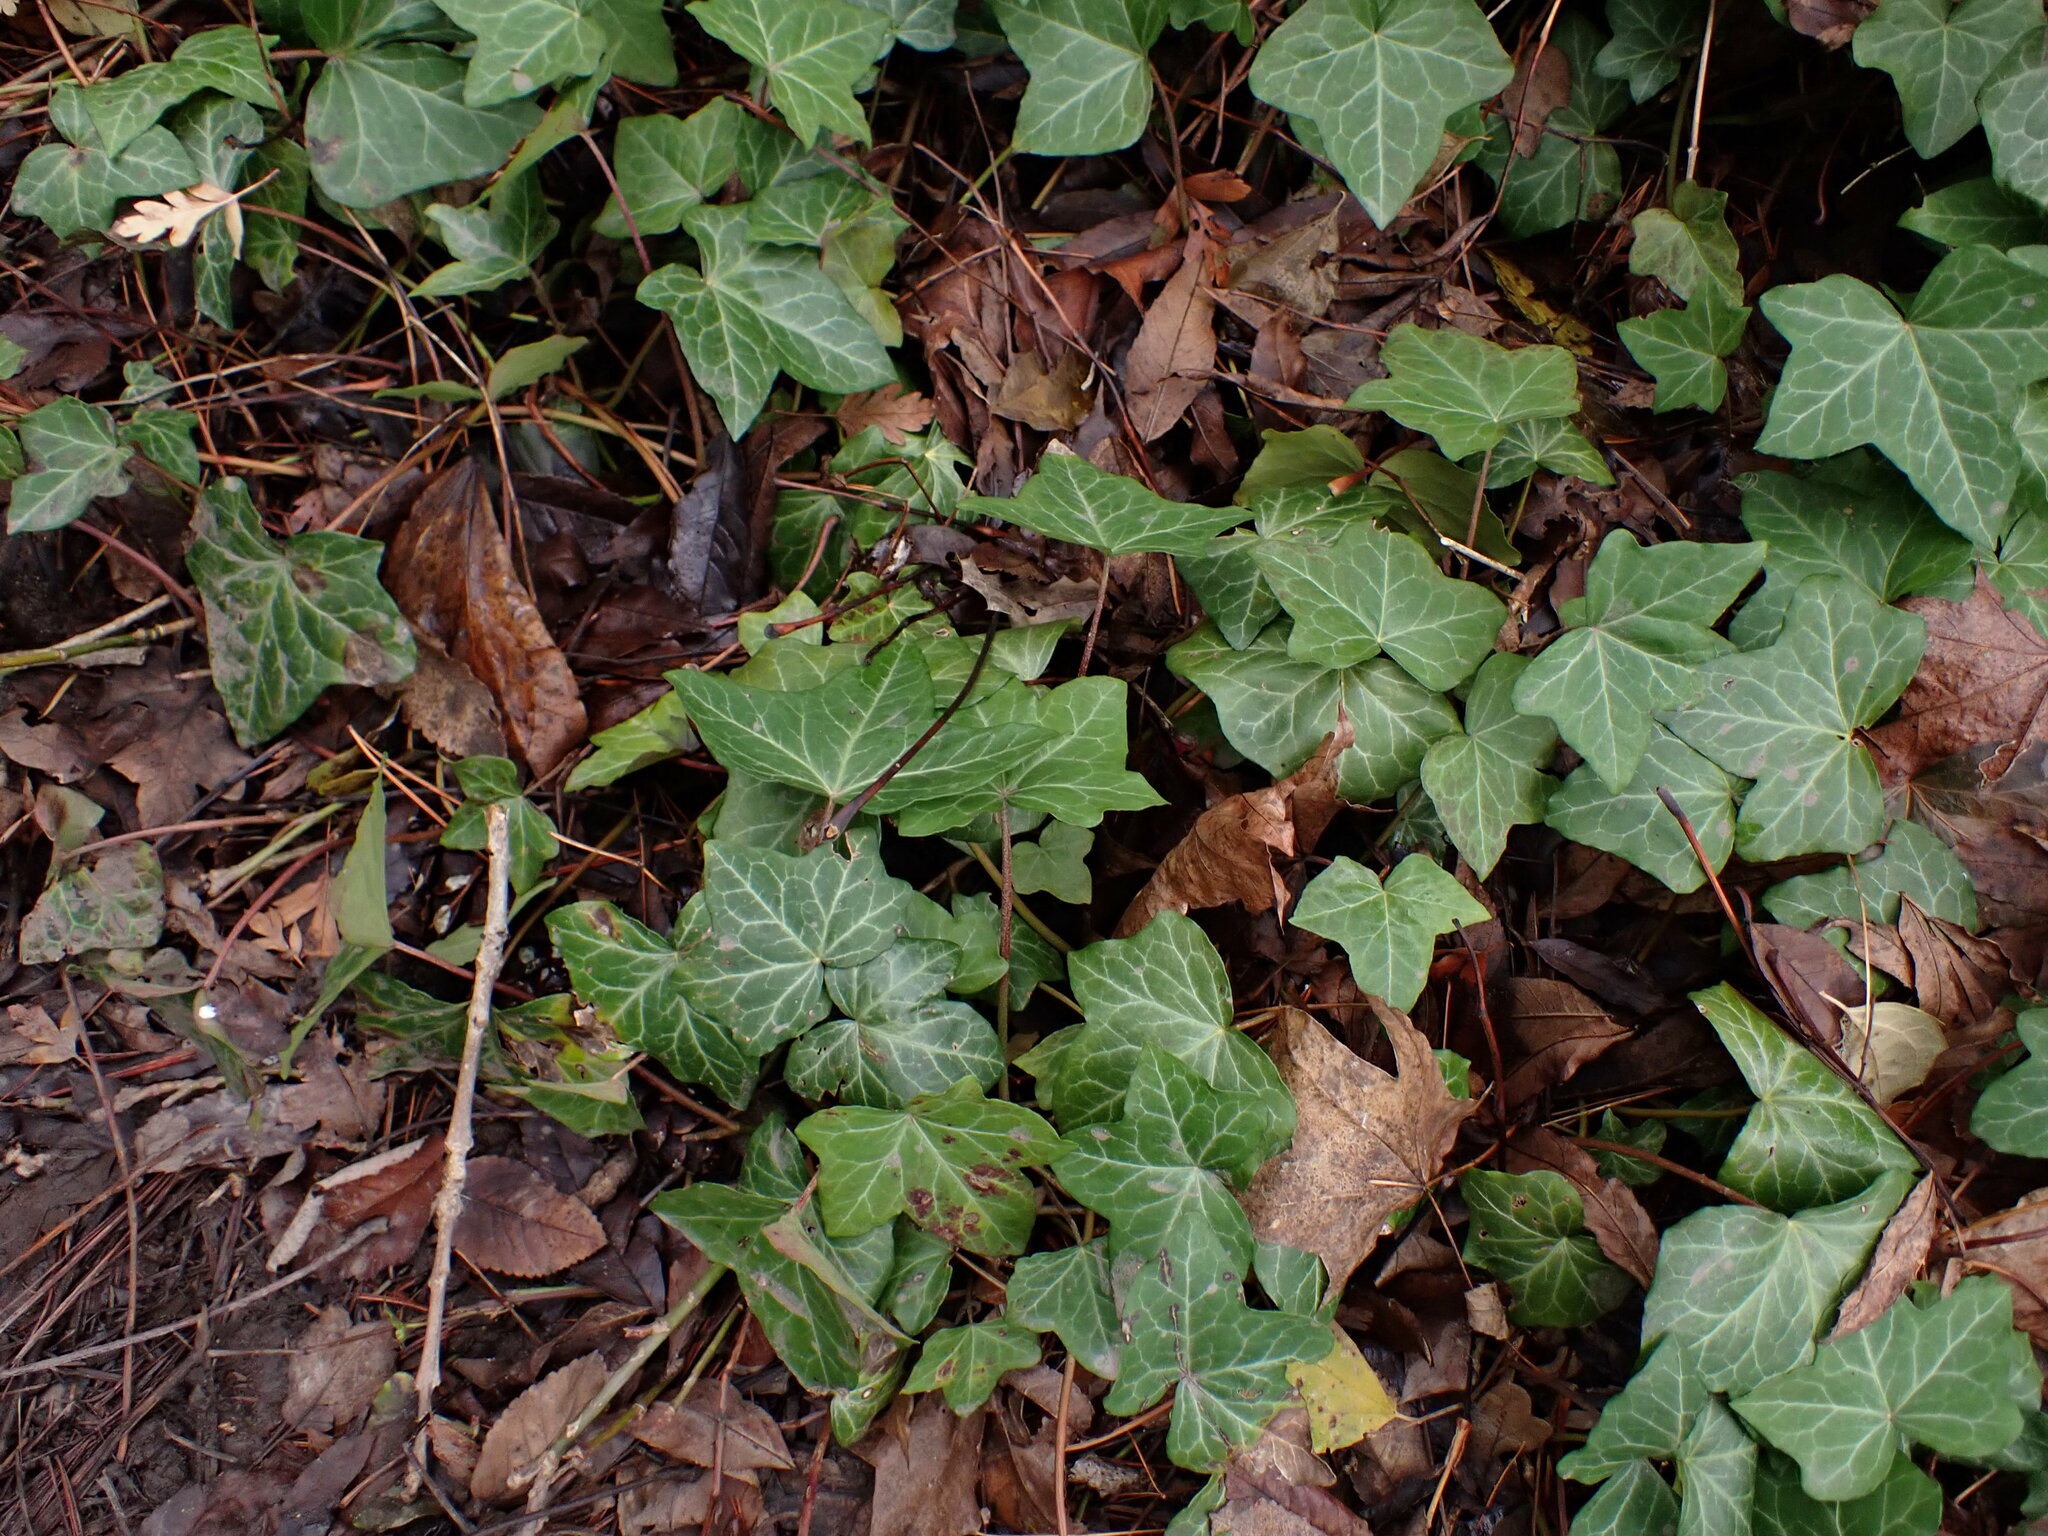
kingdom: Plantae
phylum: Tracheophyta
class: Magnoliopsida
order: Apiales
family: Araliaceae
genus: Hedera
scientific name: Hedera helix
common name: Ivy
